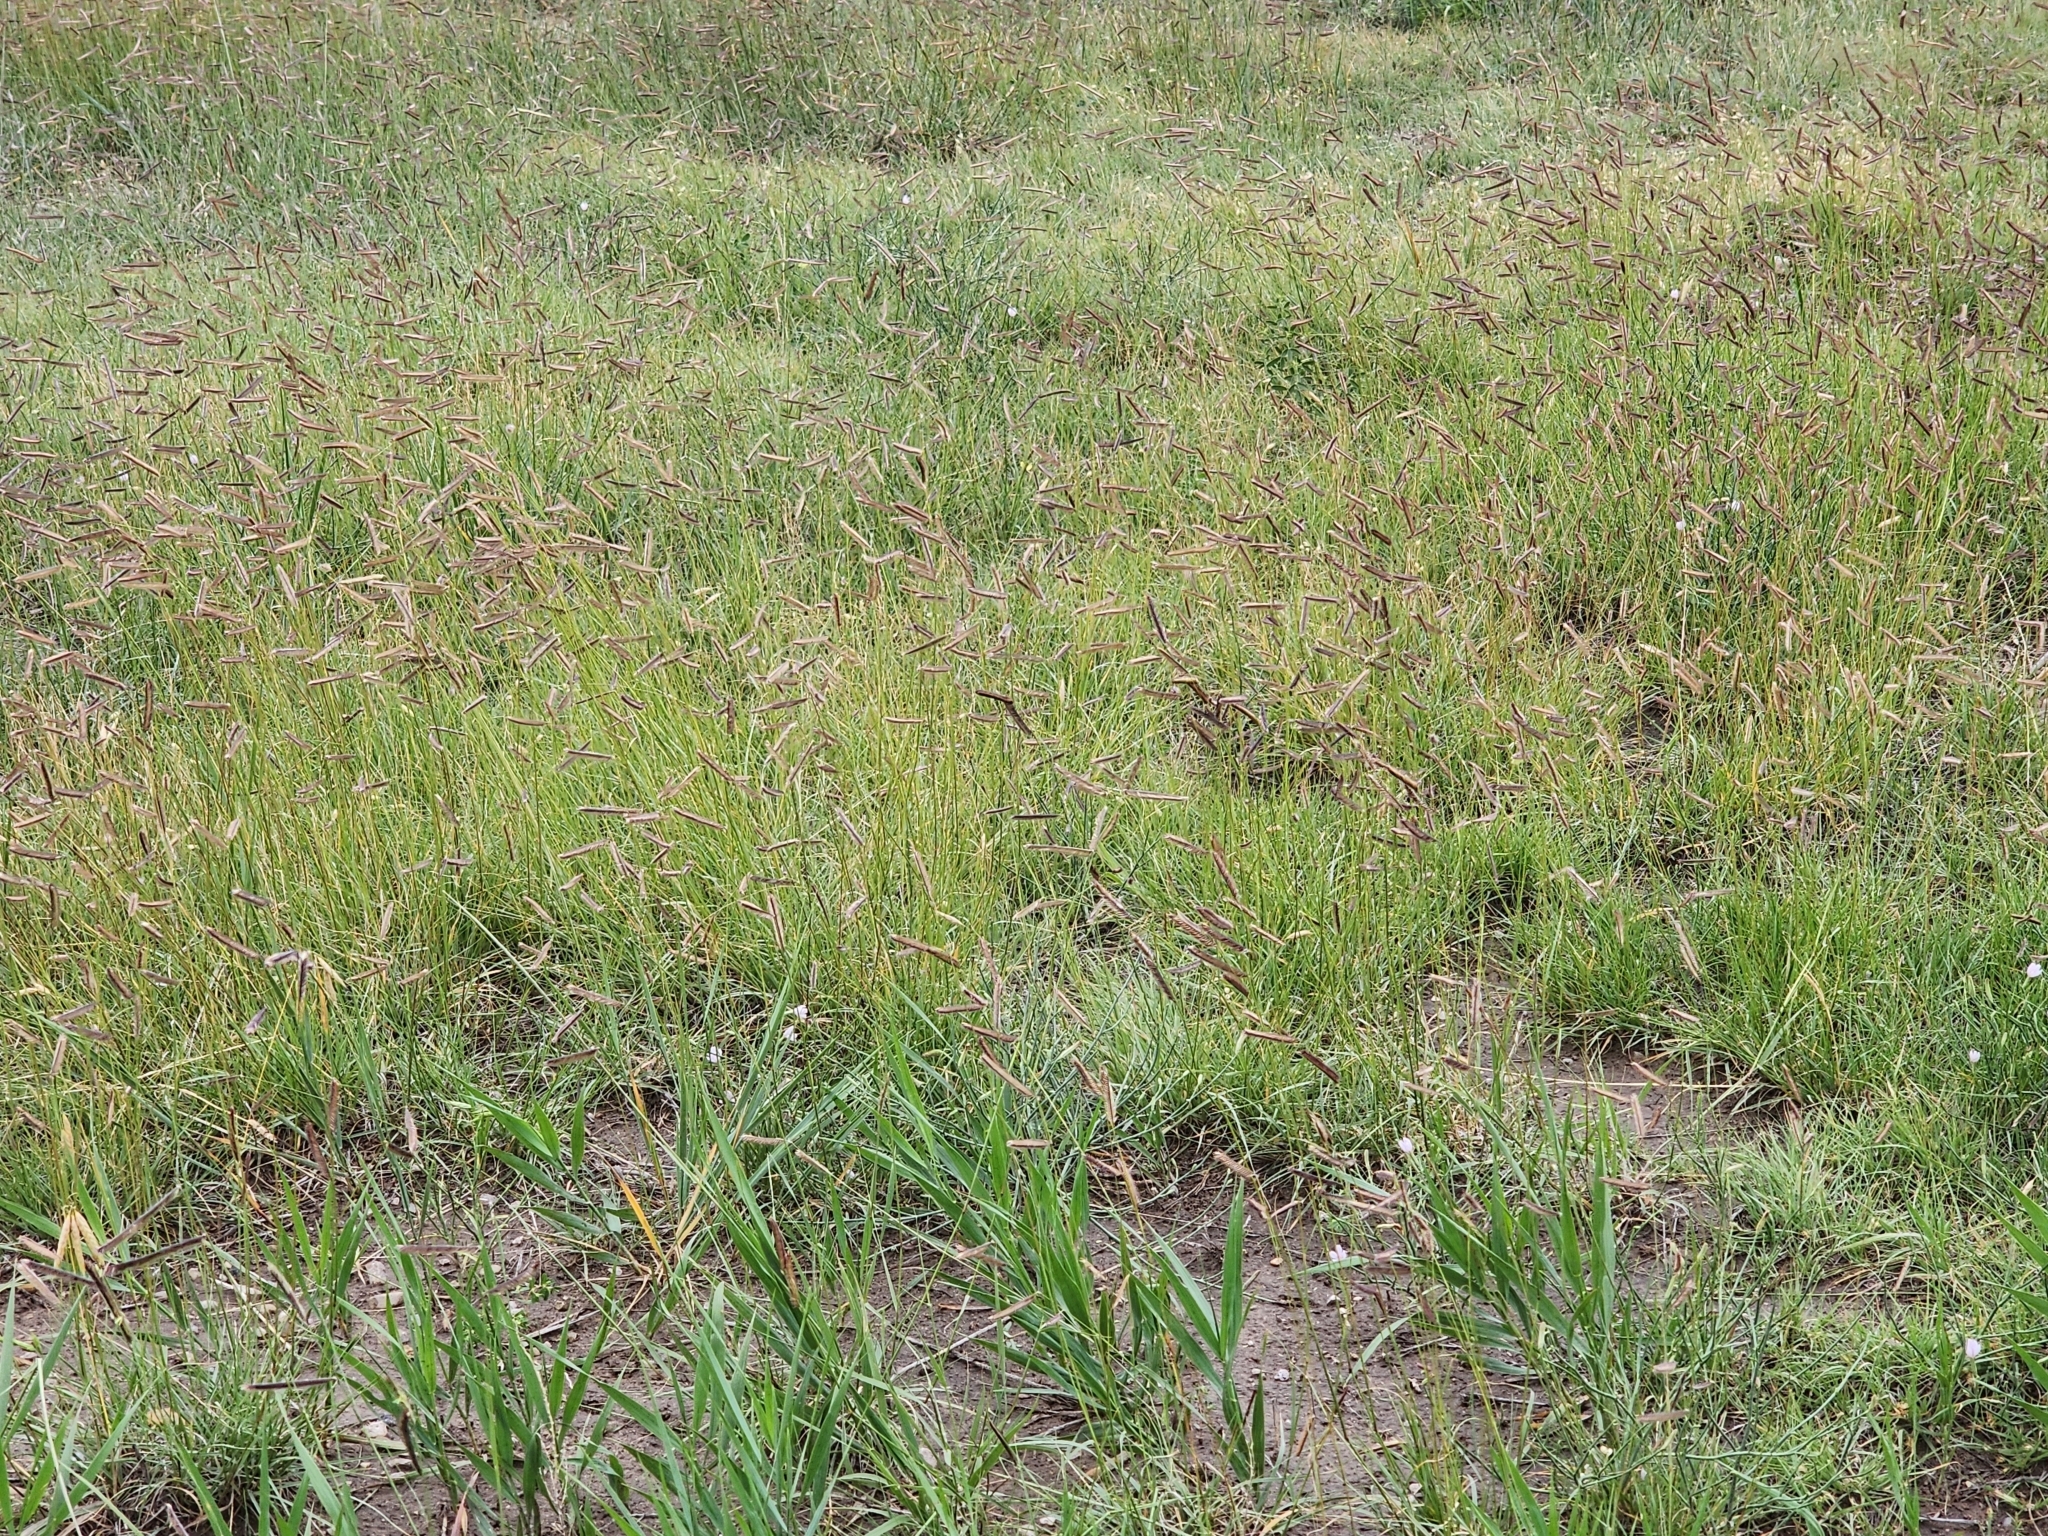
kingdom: Plantae
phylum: Tracheophyta
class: Liliopsida
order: Poales
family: Poaceae
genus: Bouteloua
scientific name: Bouteloua gracilis
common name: Blue grama
